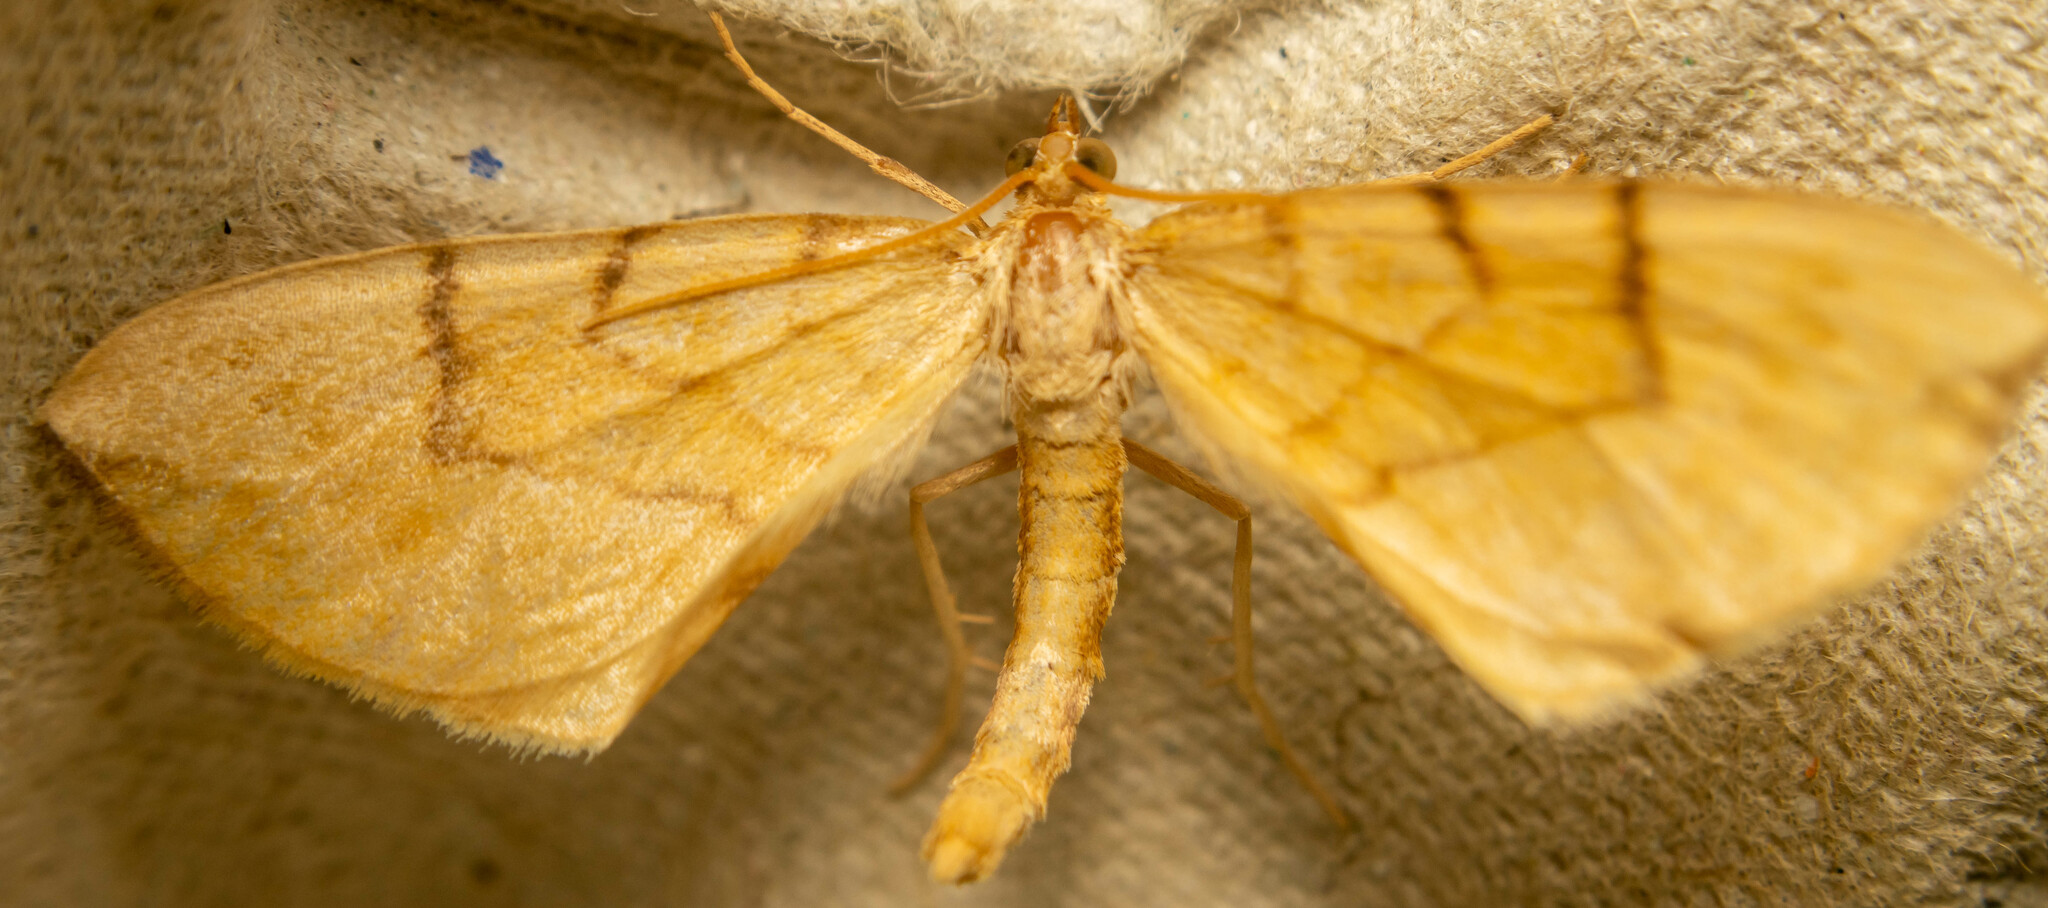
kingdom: Animalia
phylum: Arthropoda
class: Insecta
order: Lepidoptera
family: Geometridae
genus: Eulithis
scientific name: Eulithis pyraliata
